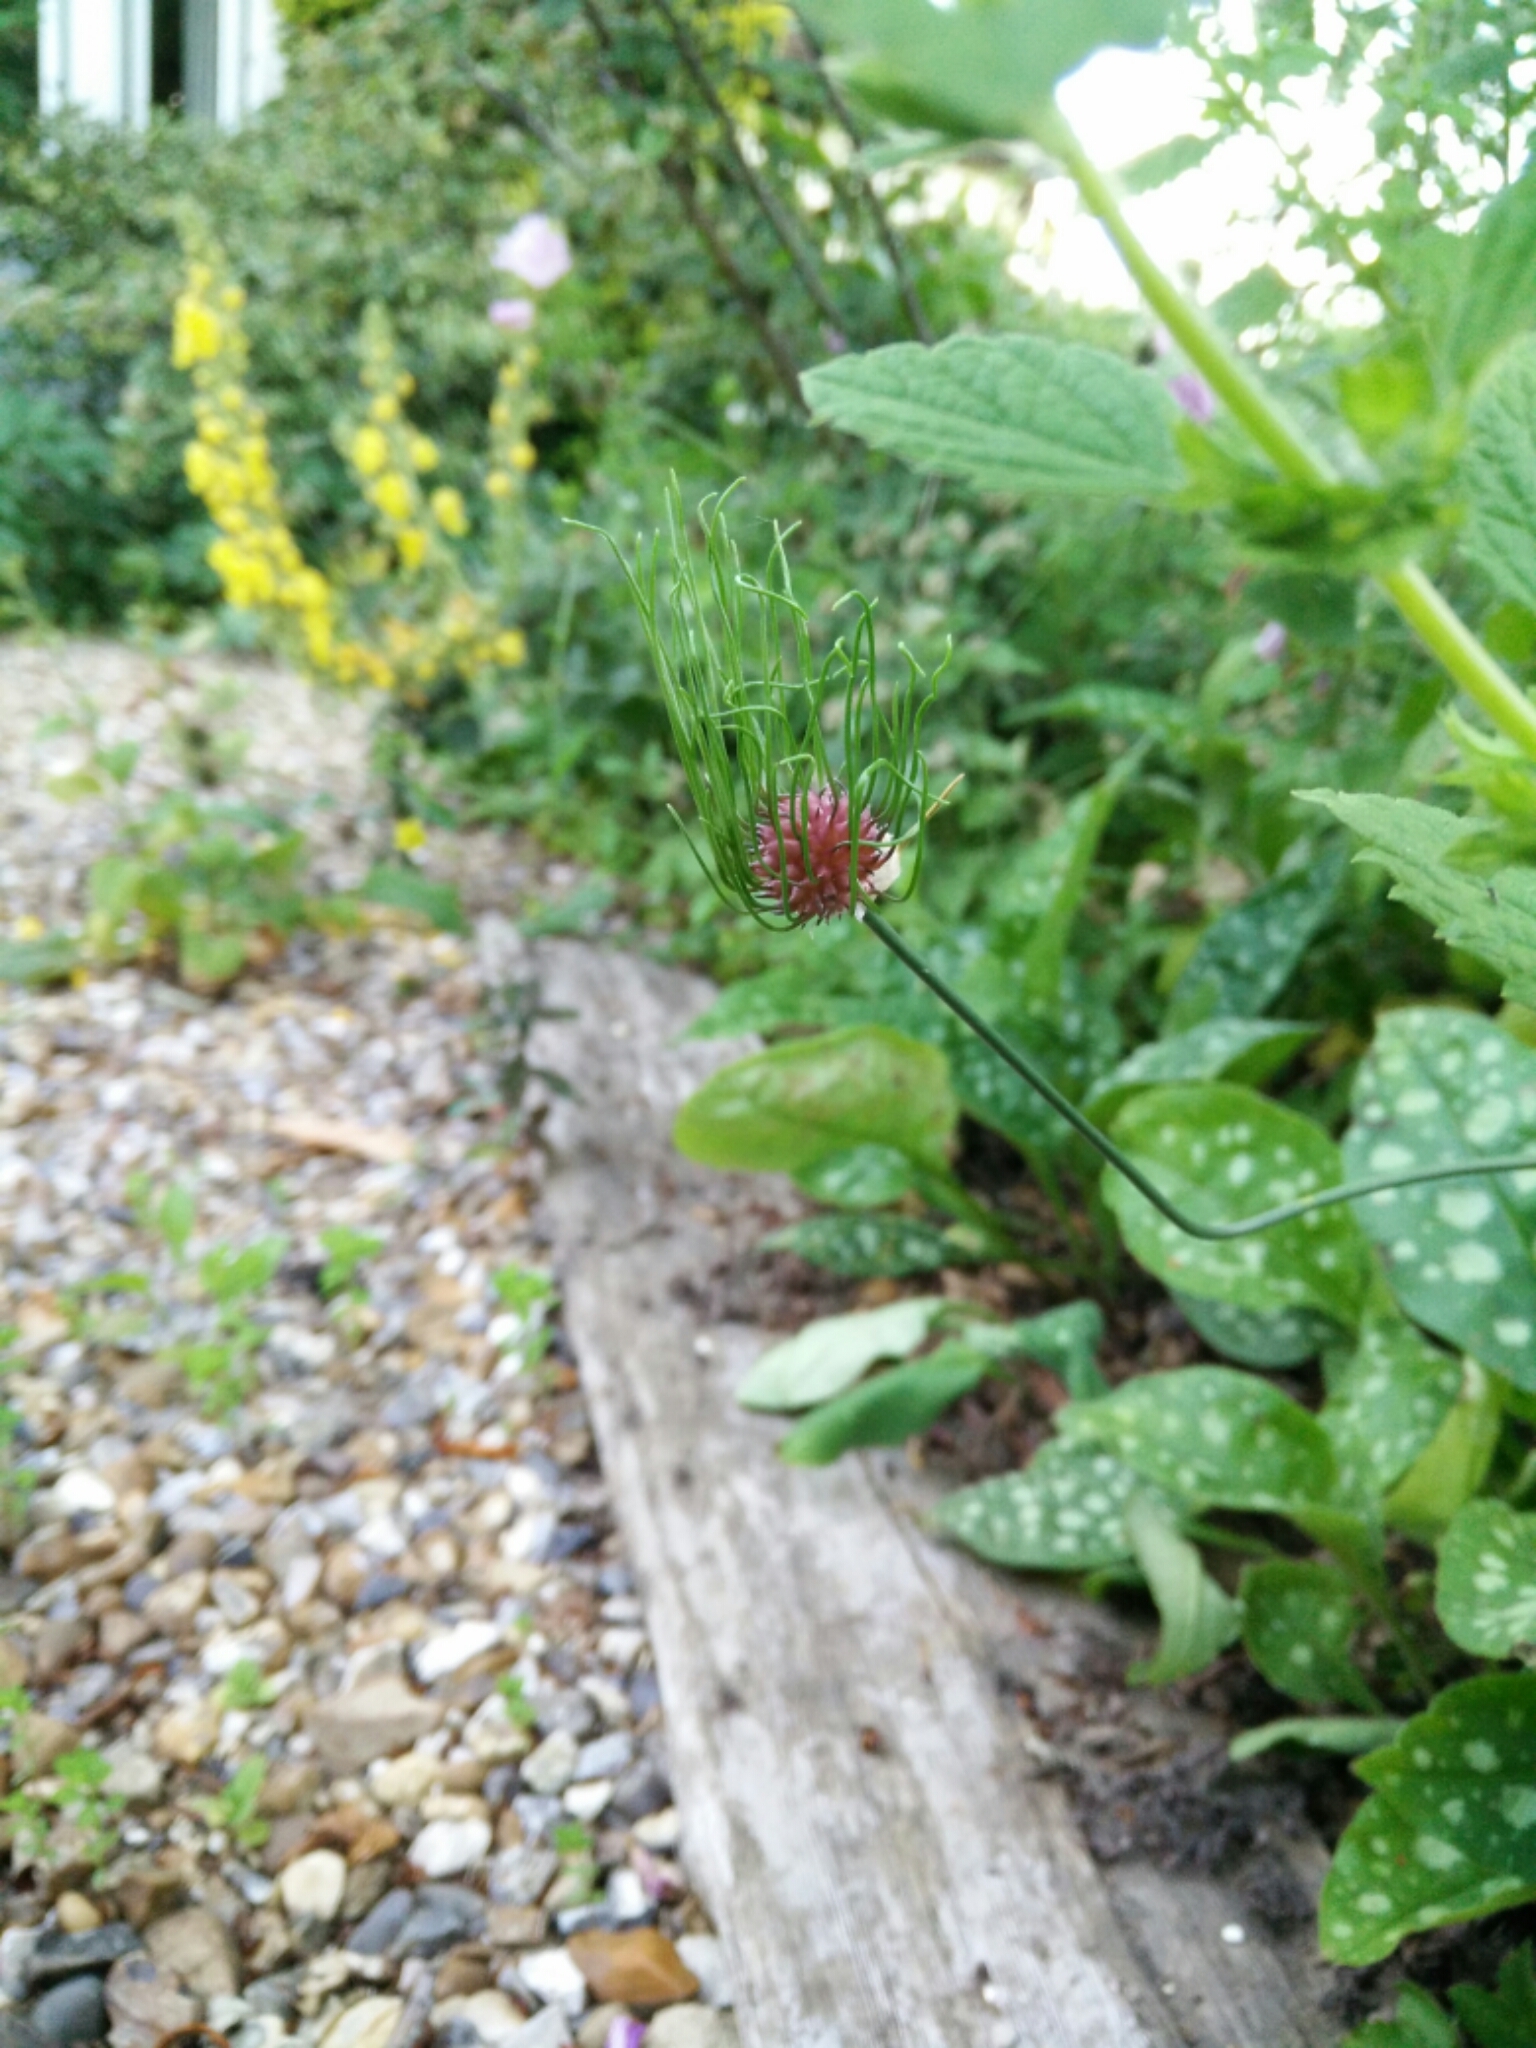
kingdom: Plantae
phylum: Tracheophyta
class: Liliopsida
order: Asparagales
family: Amaryllidaceae
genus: Allium
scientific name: Allium vineale
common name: Crow garlic
